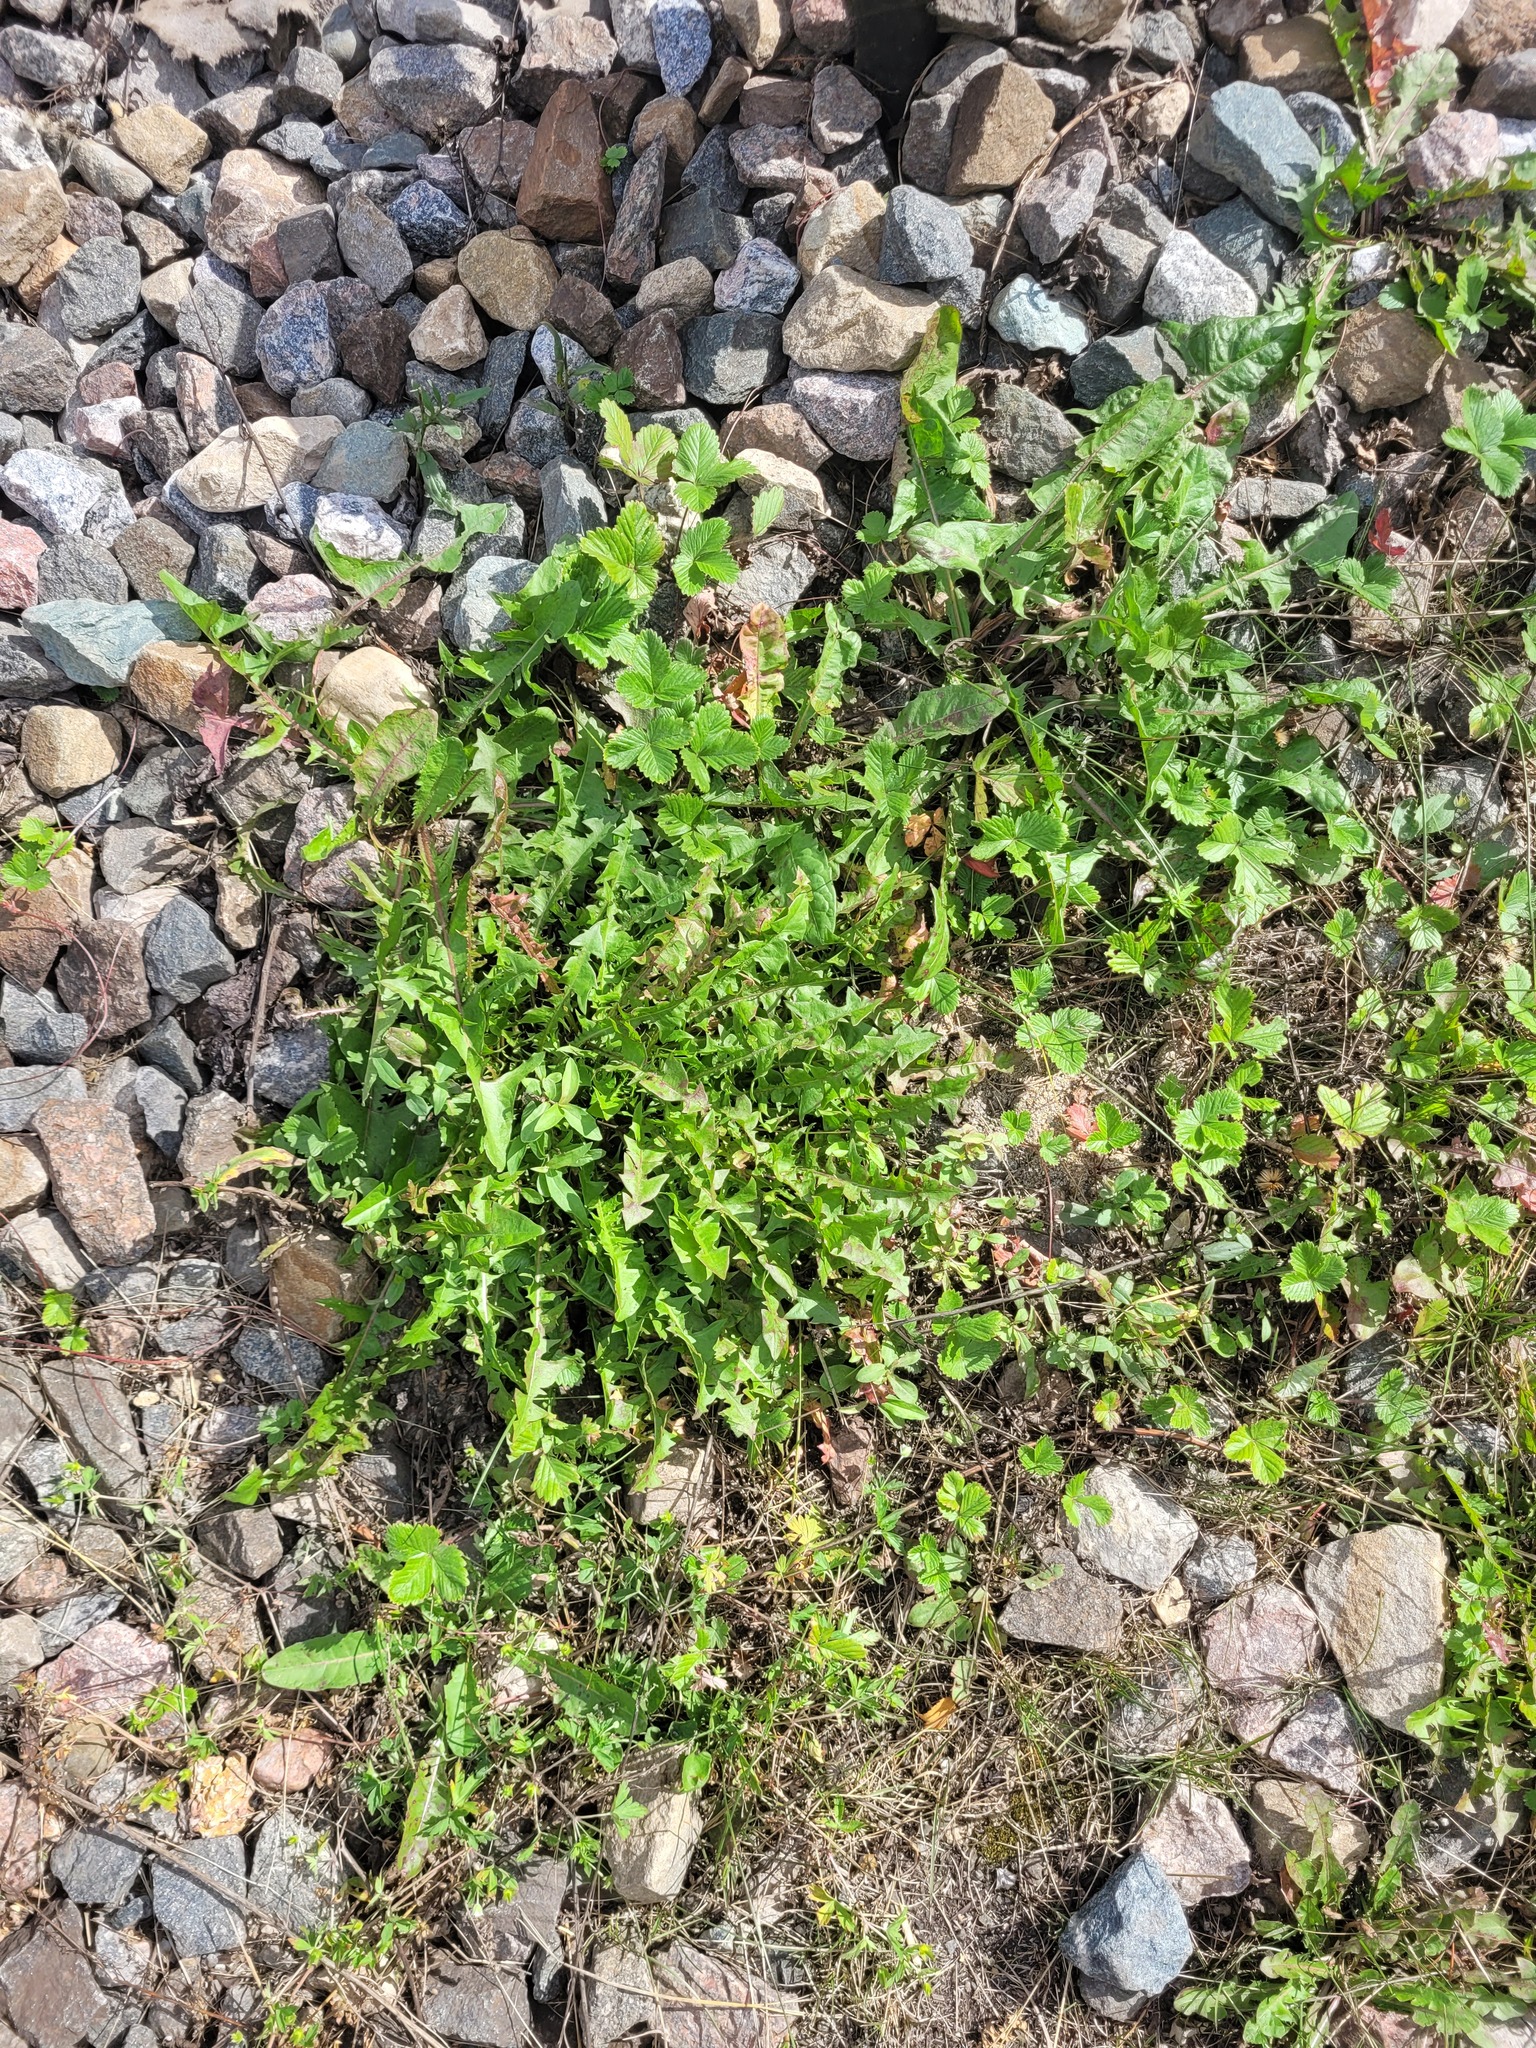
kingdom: Plantae
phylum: Tracheophyta
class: Magnoliopsida
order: Asterales
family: Asteraceae
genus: Taraxacum
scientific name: Taraxacum officinale
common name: Common dandelion
